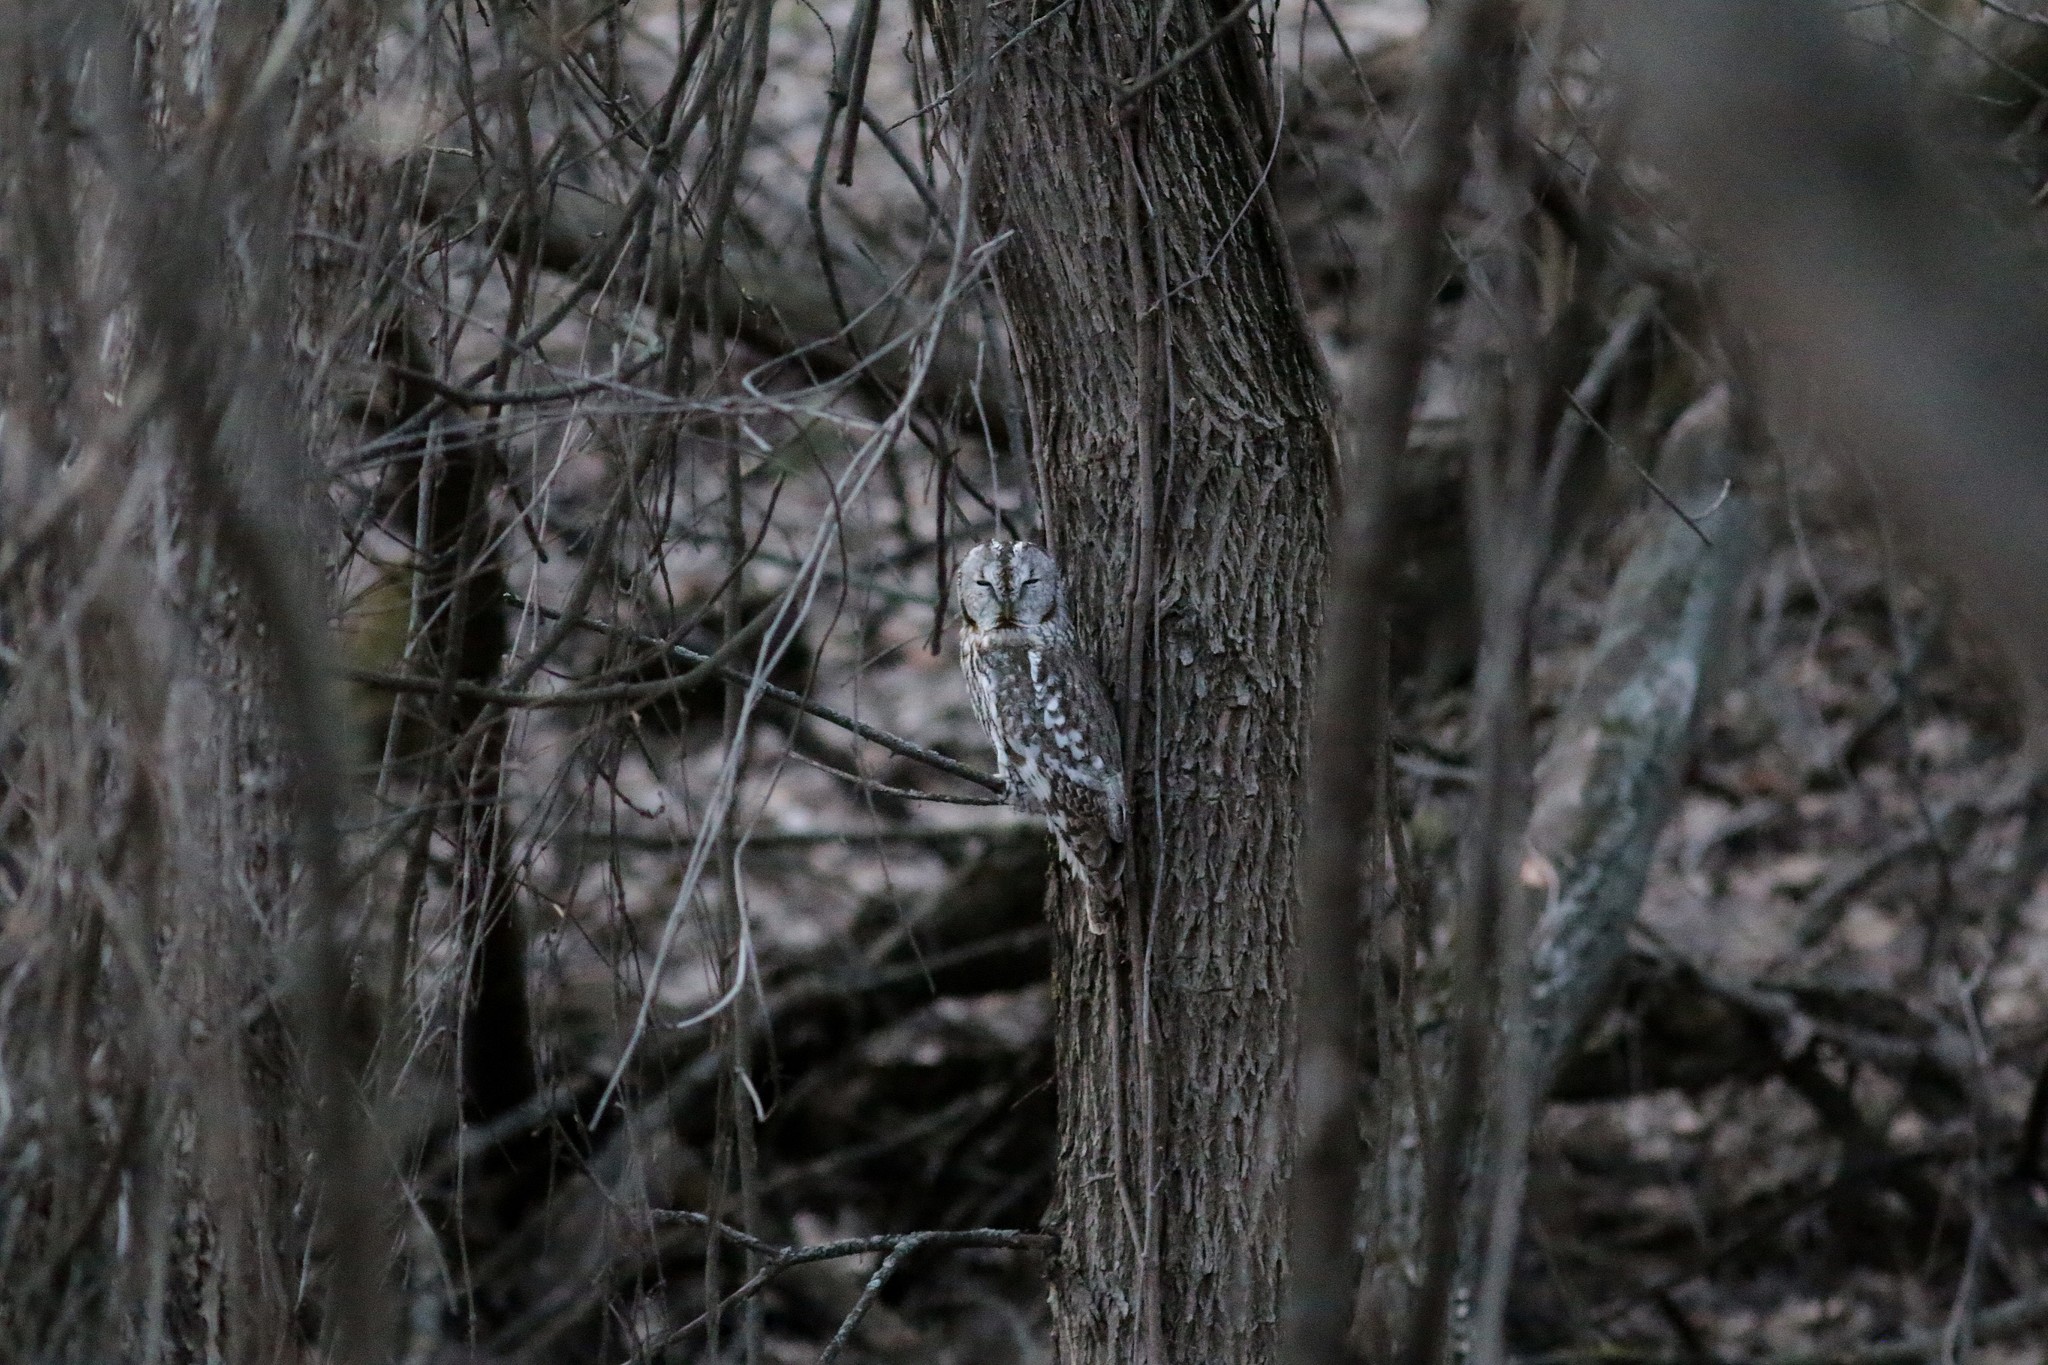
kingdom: Animalia
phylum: Chordata
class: Aves
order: Strigiformes
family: Strigidae
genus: Strix
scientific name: Strix aluco
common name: Tawny owl
